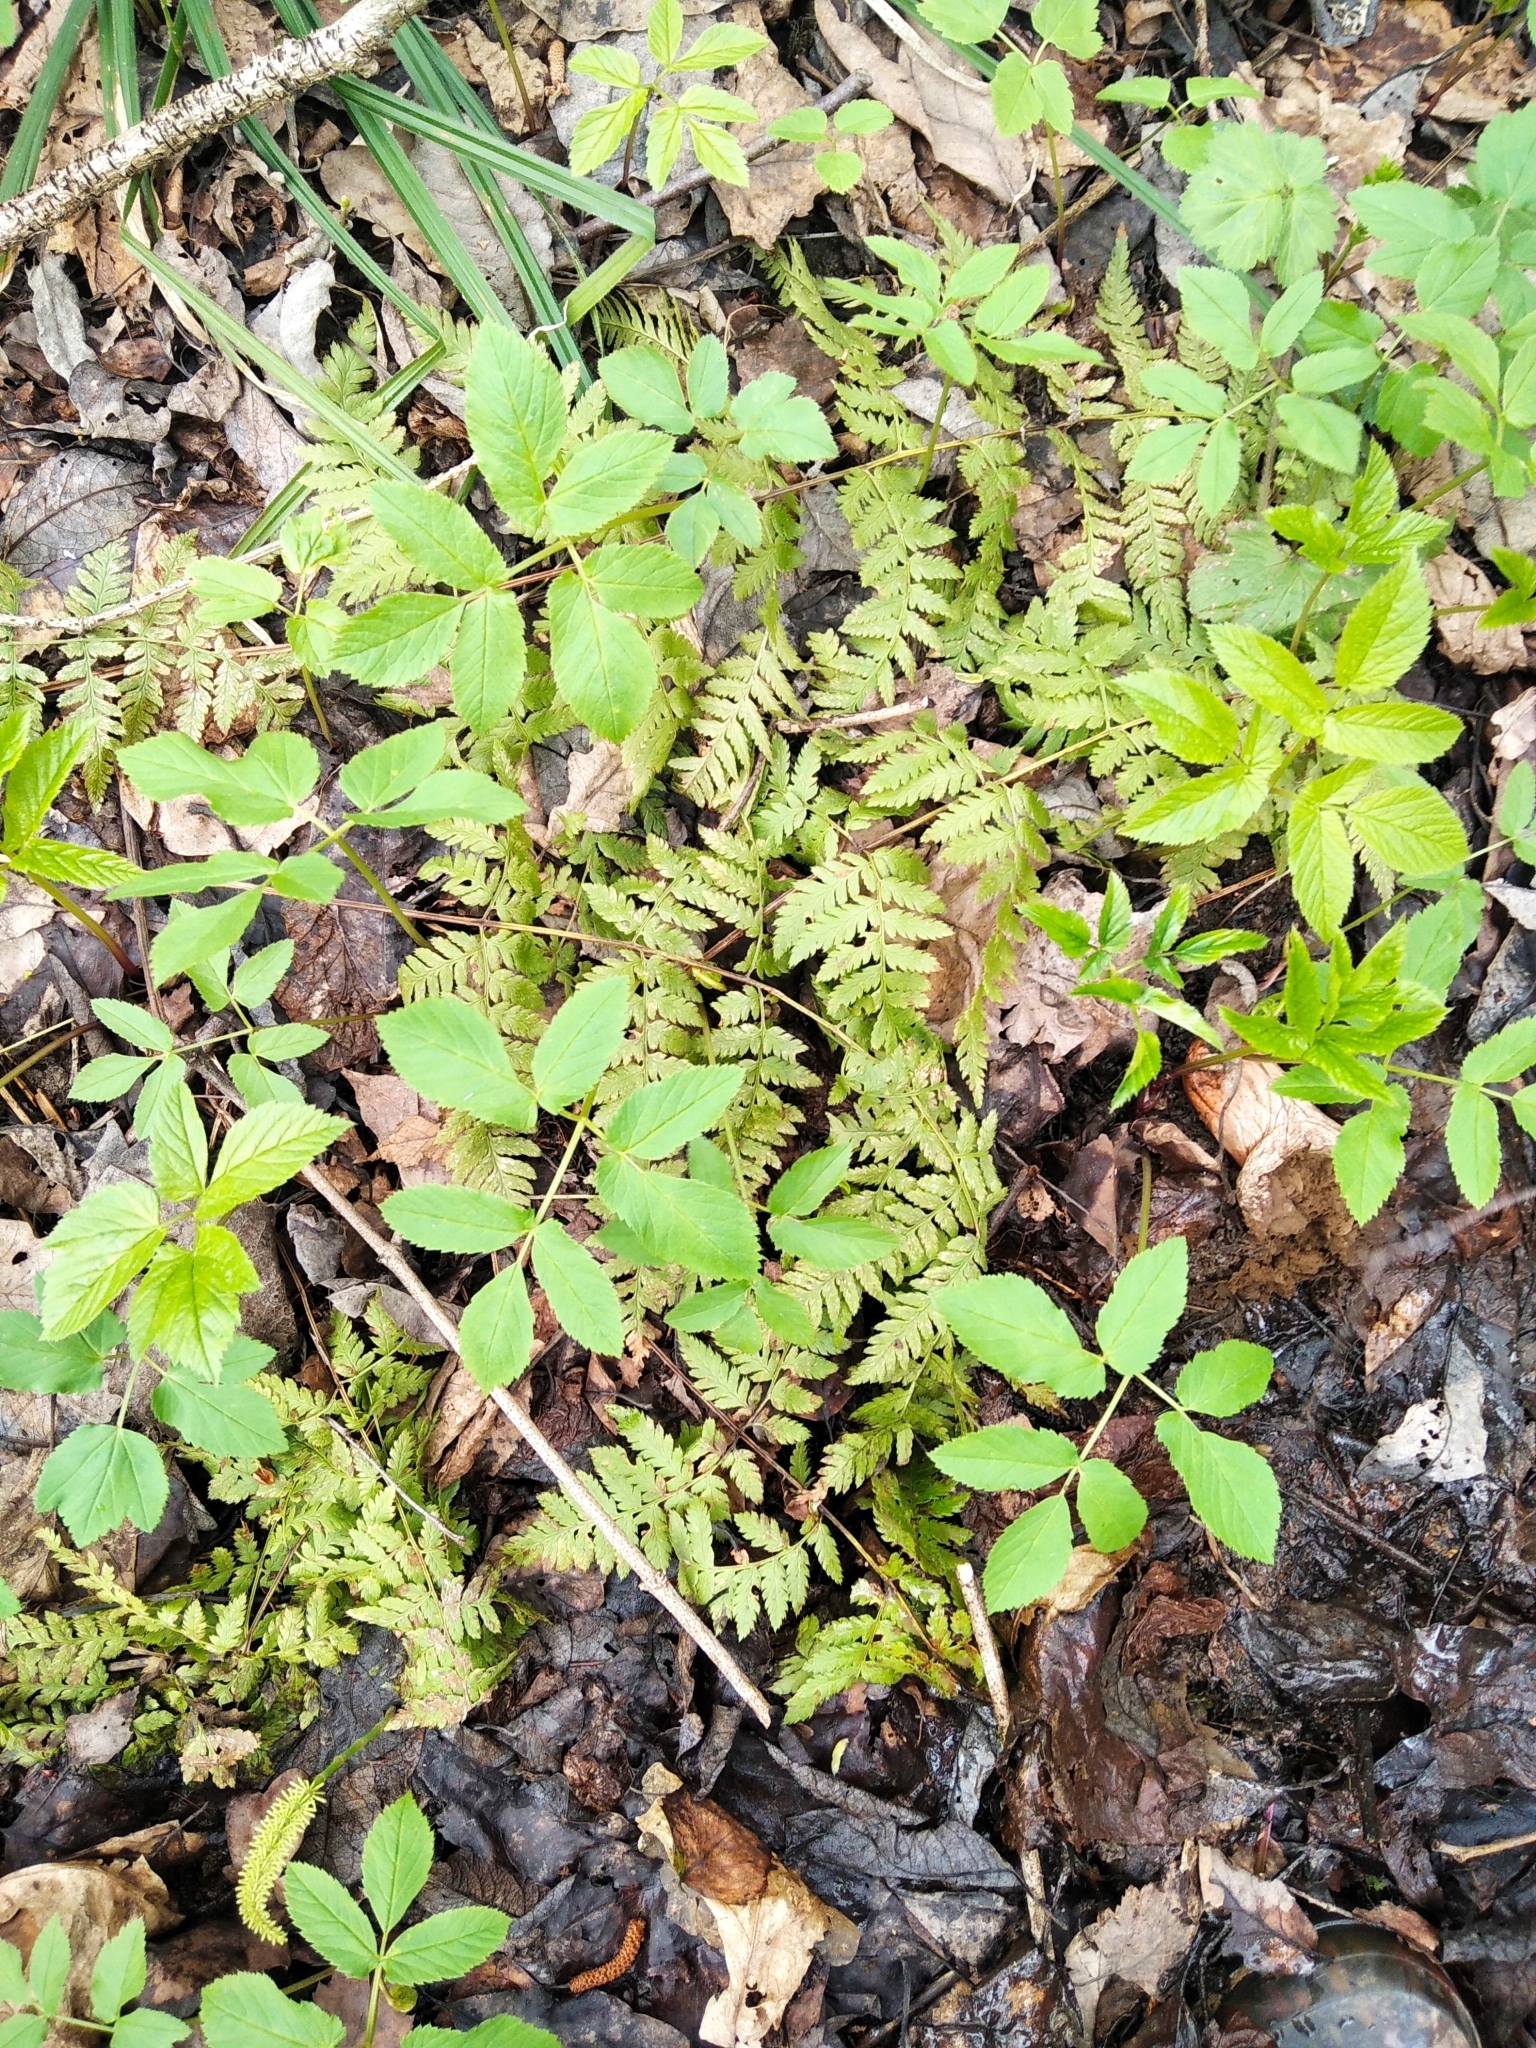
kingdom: Plantae
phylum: Tracheophyta
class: Polypodiopsida
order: Polypodiales
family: Dryopteridaceae
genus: Dryopteris
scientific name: Dryopteris carthusiana
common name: Narrow buckler-fern
